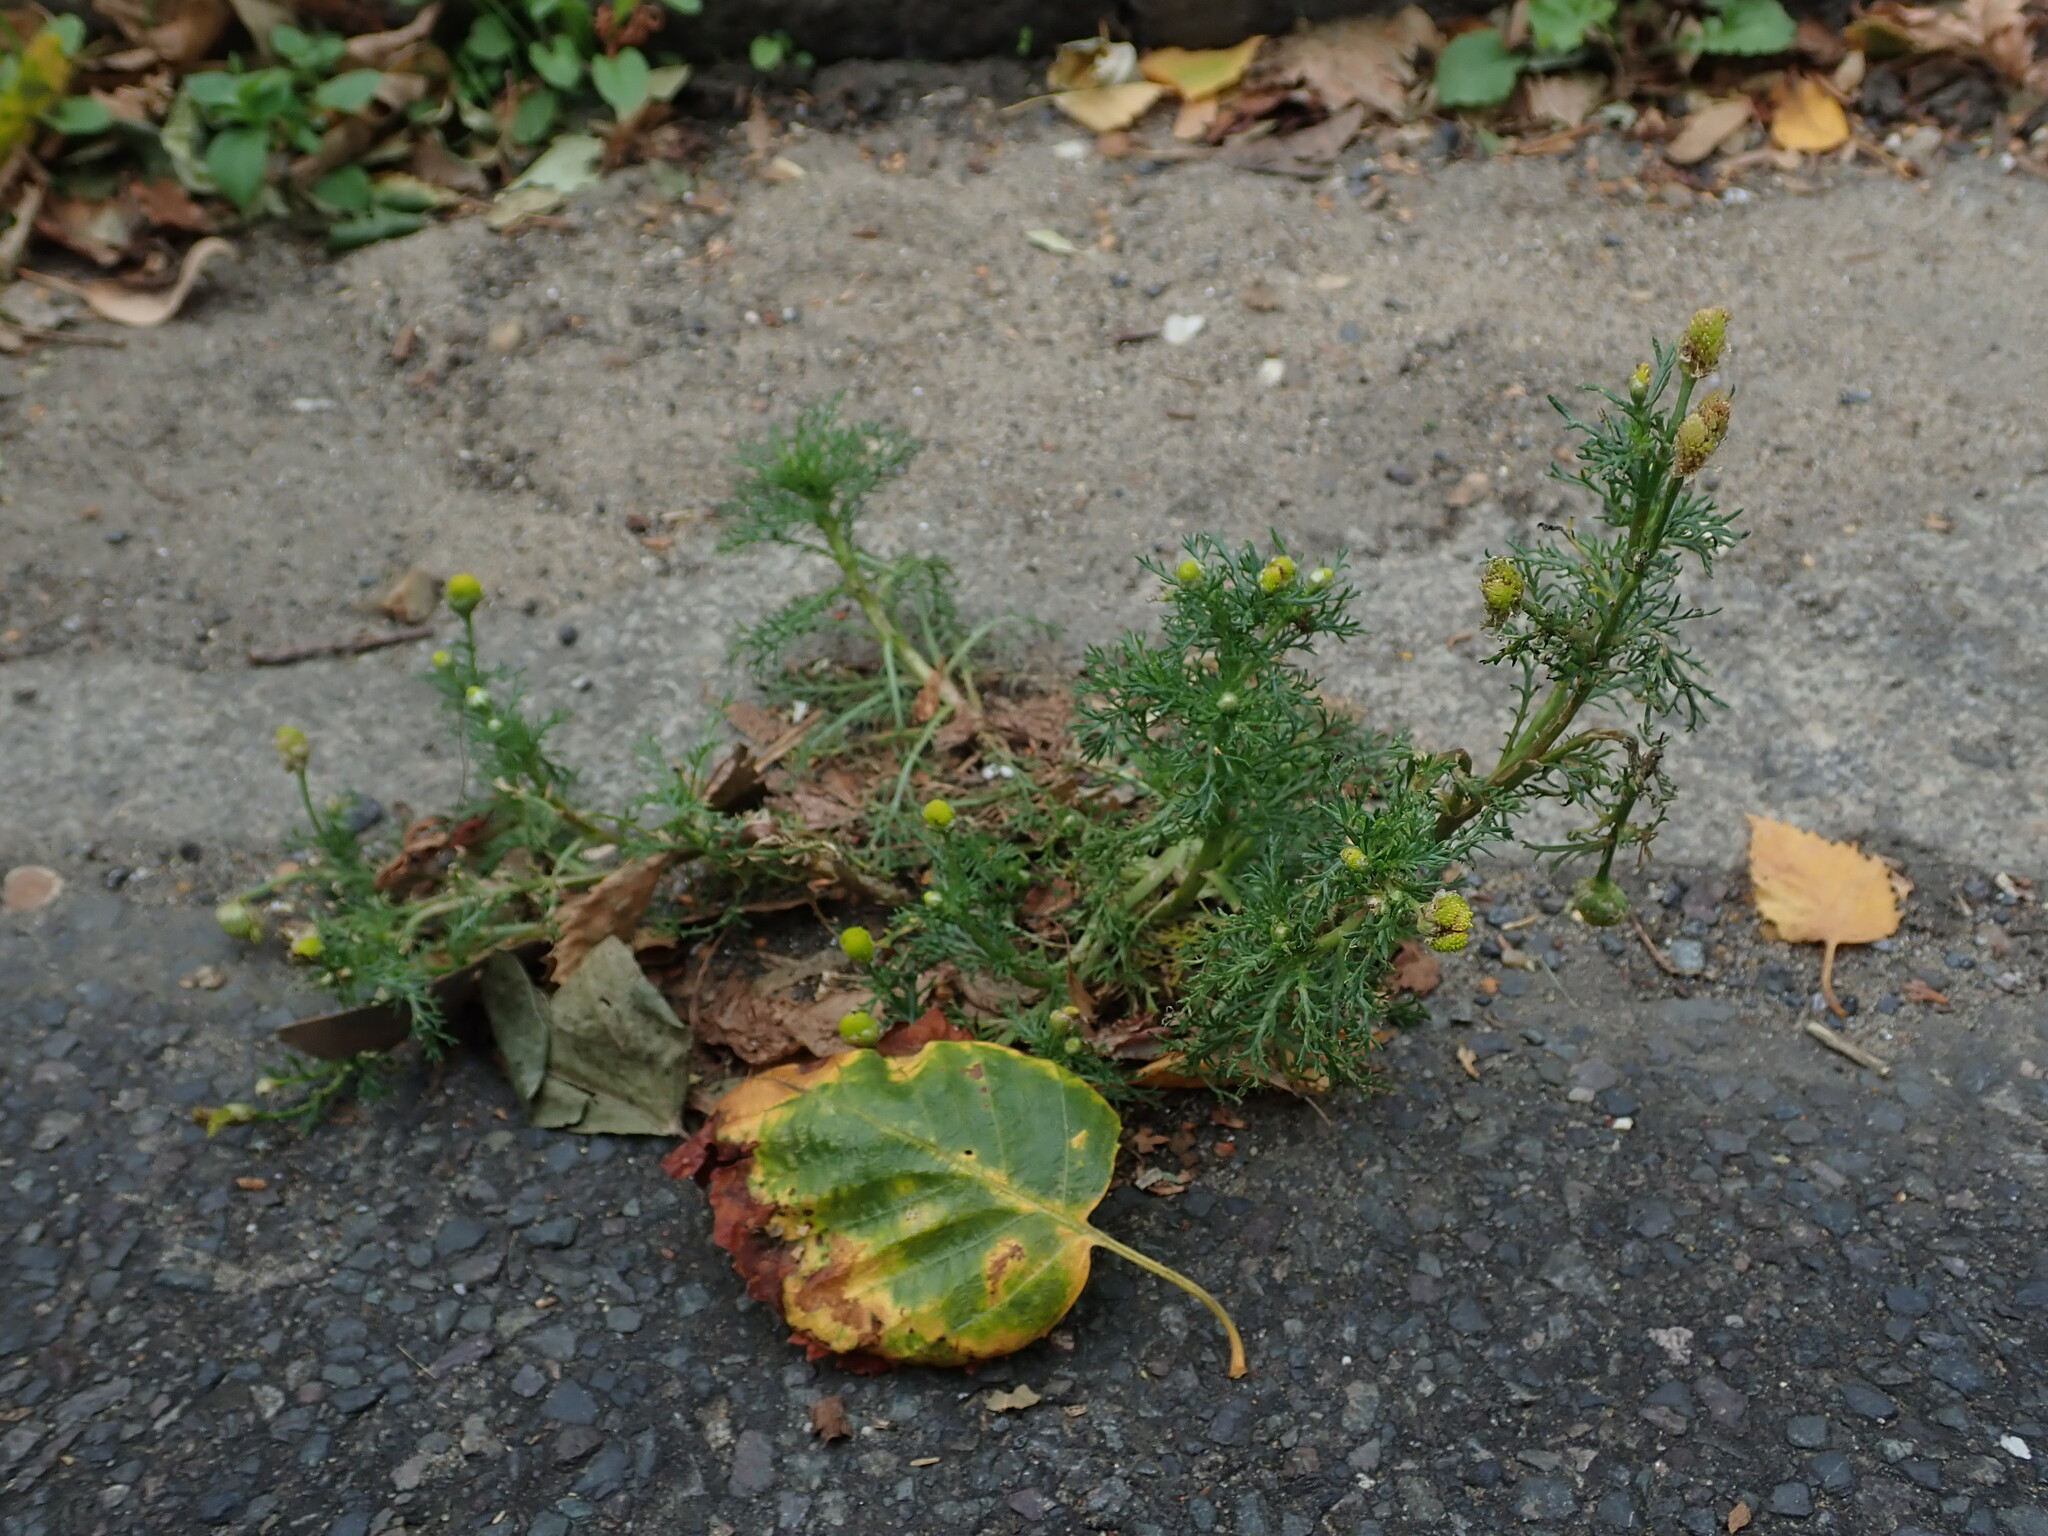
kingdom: Plantae
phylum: Tracheophyta
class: Magnoliopsida
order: Asterales
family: Asteraceae
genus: Matricaria
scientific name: Matricaria discoidea
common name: Disc mayweed
